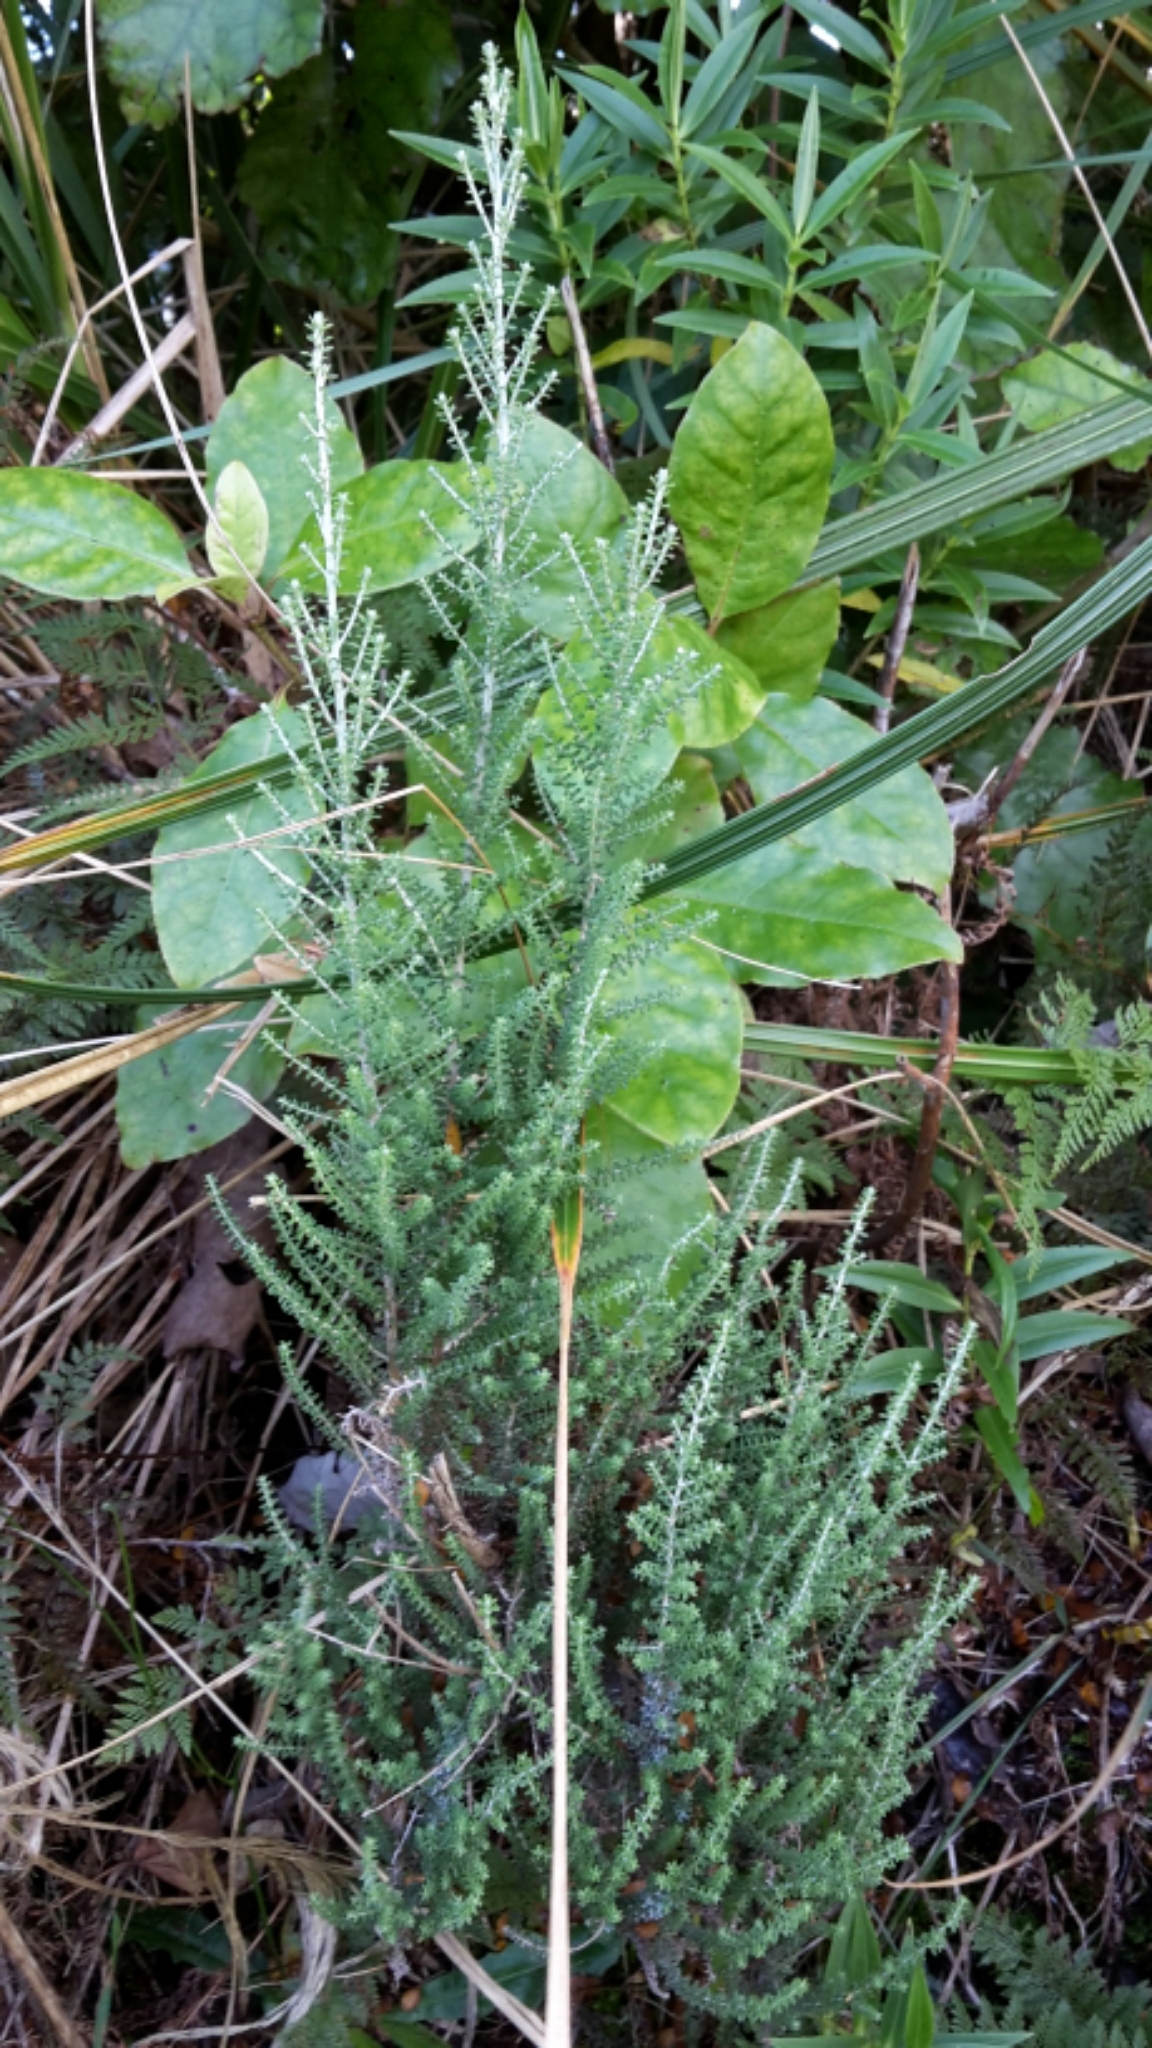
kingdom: Plantae
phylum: Tracheophyta
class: Magnoliopsida
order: Asterales
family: Asteraceae
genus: Ozothamnus
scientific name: Ozothamnus leptophyllus
